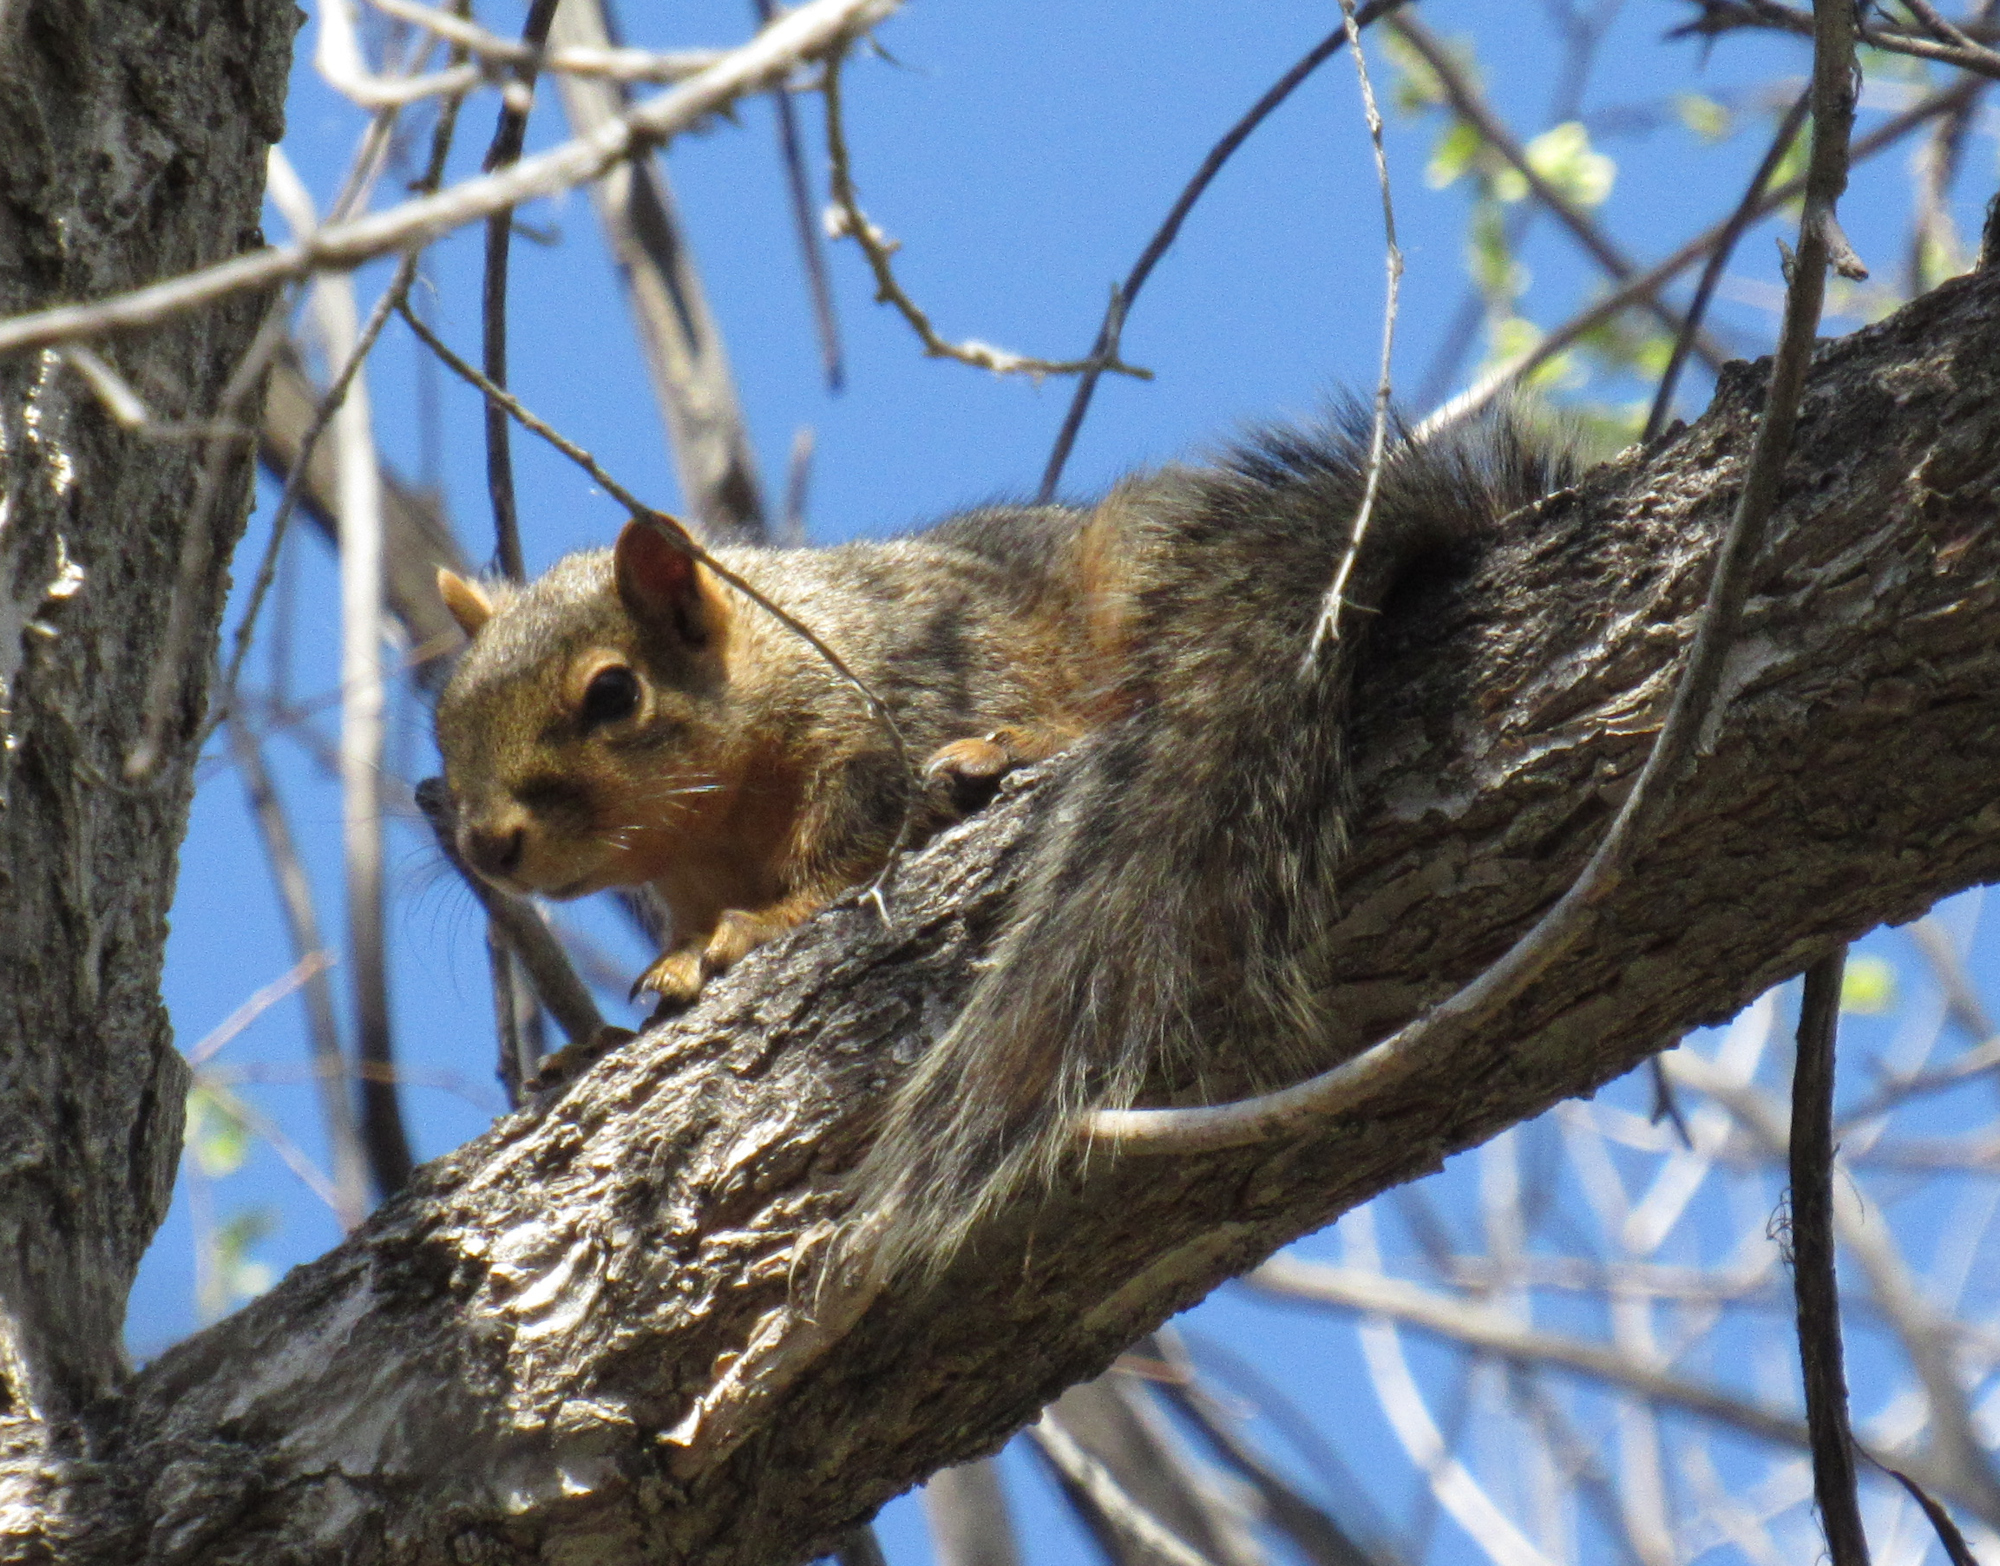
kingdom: Animalia
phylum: Chordata
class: Mammalia
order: Rodentia
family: Sciuridae
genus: Sciurus
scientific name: Sciurus niger
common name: Fox squirrel
